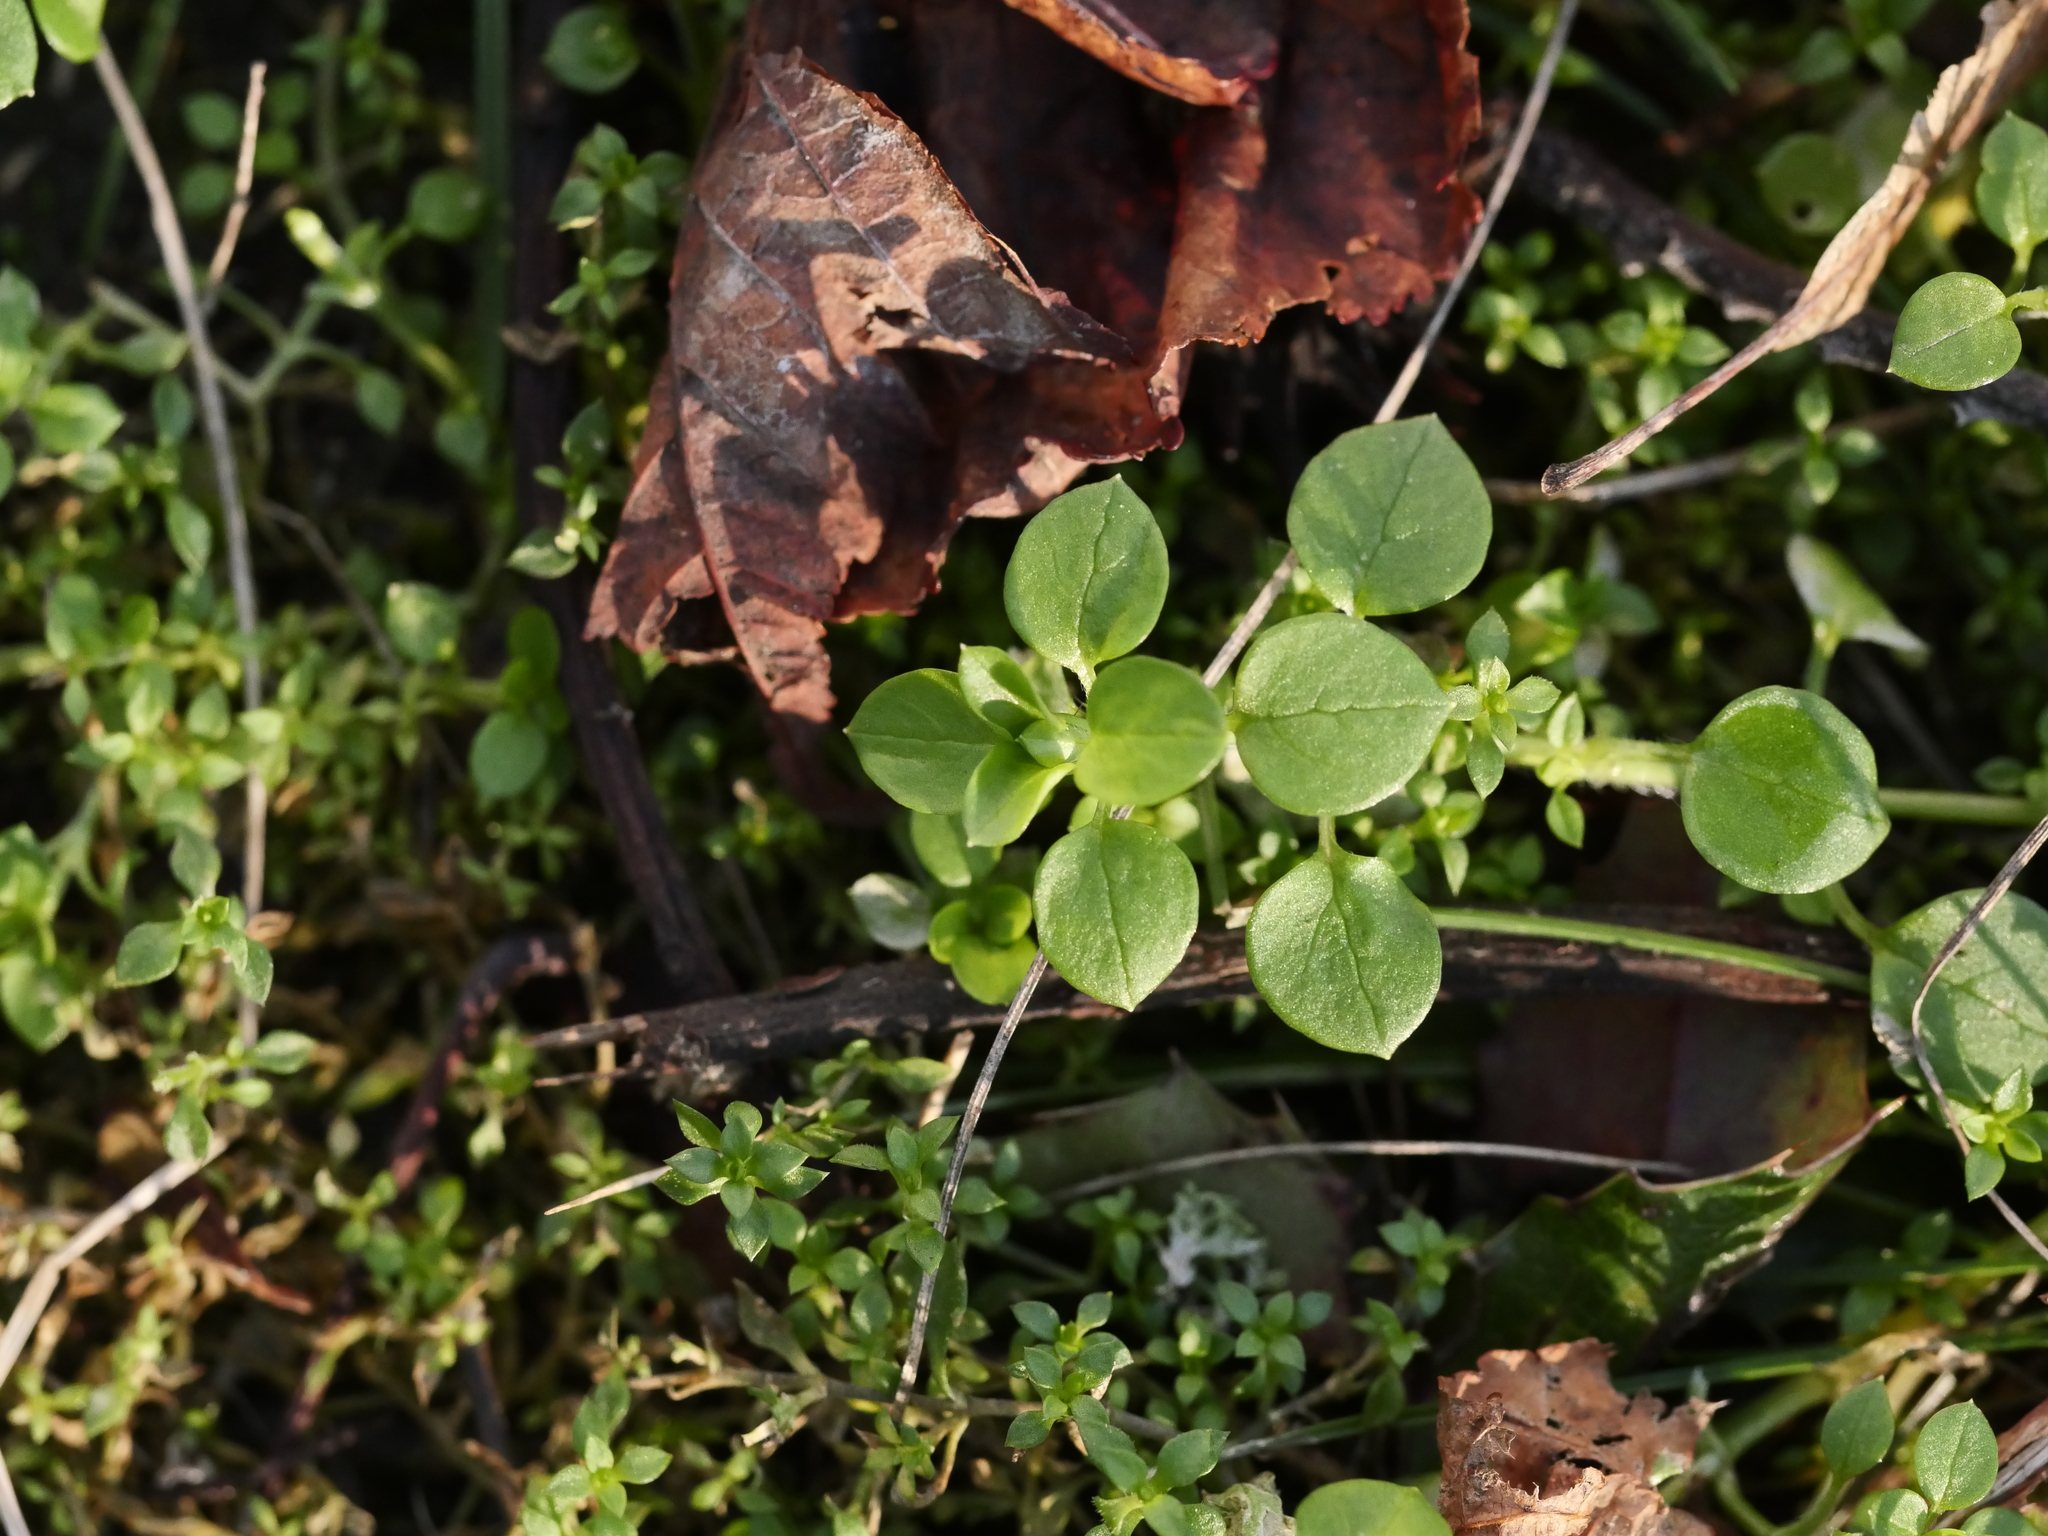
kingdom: Plantae
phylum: Tracheophyta
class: Magnoliopsida
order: Caryophyllales
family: Caryophyllaceae
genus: Stellaria
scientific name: Stellaria media
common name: Common chickweed
